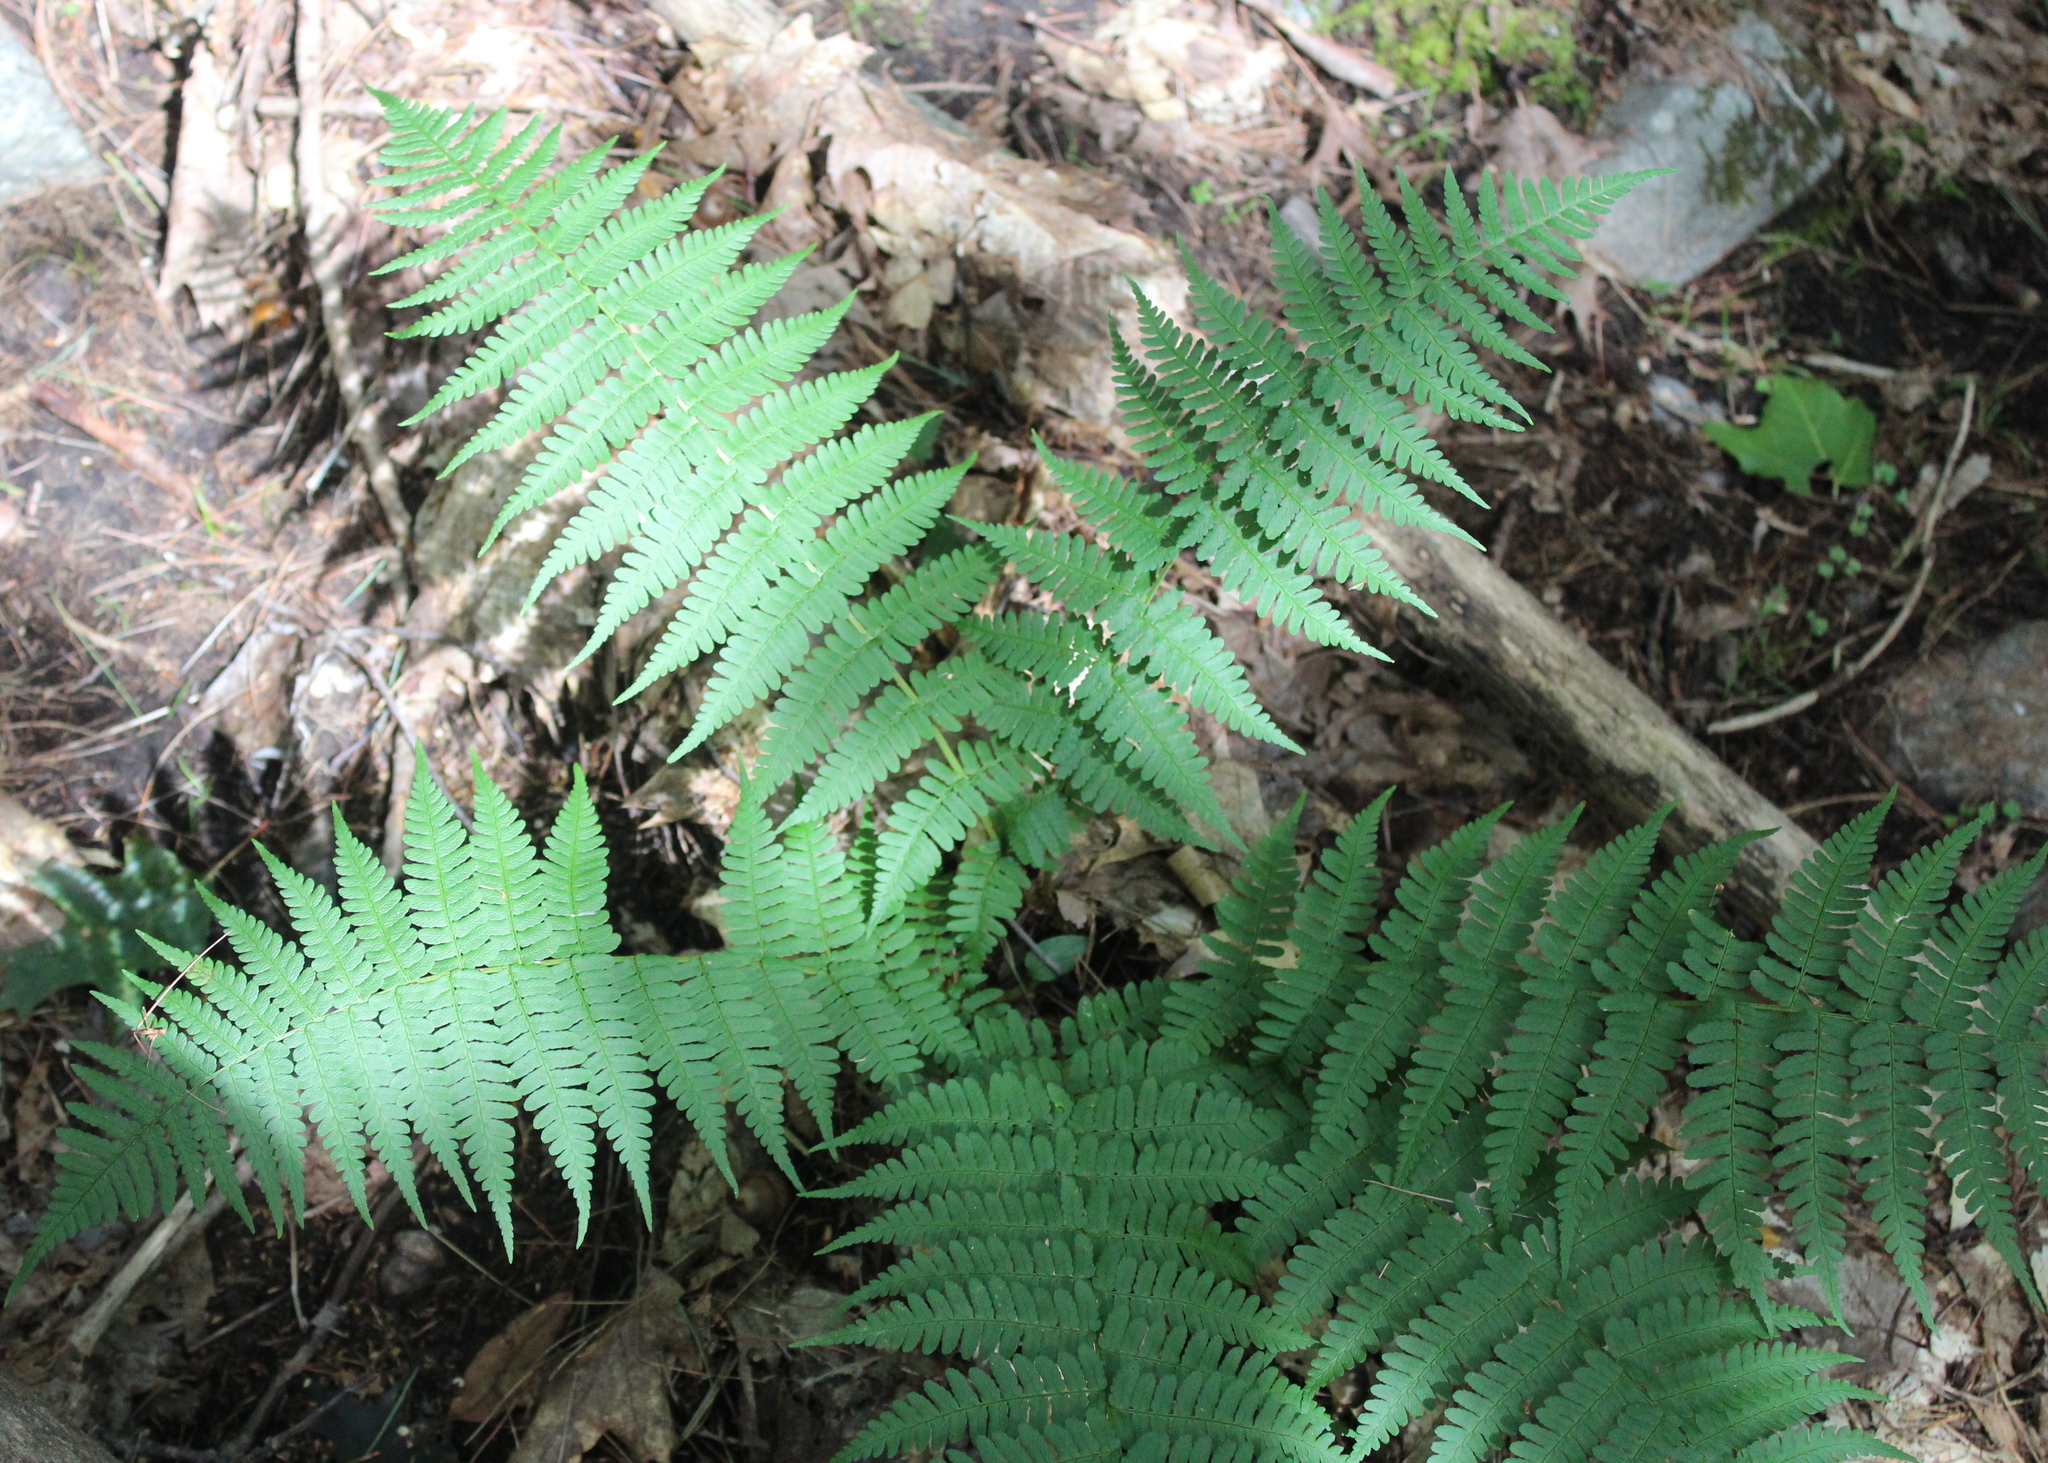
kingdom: Plantae
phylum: Tracheophyta
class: Polypodiopsida
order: Polypodiales
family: Dryopteridaceae
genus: Dryopteris
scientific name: Dryopteris marginalis
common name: Marginal wood fern
